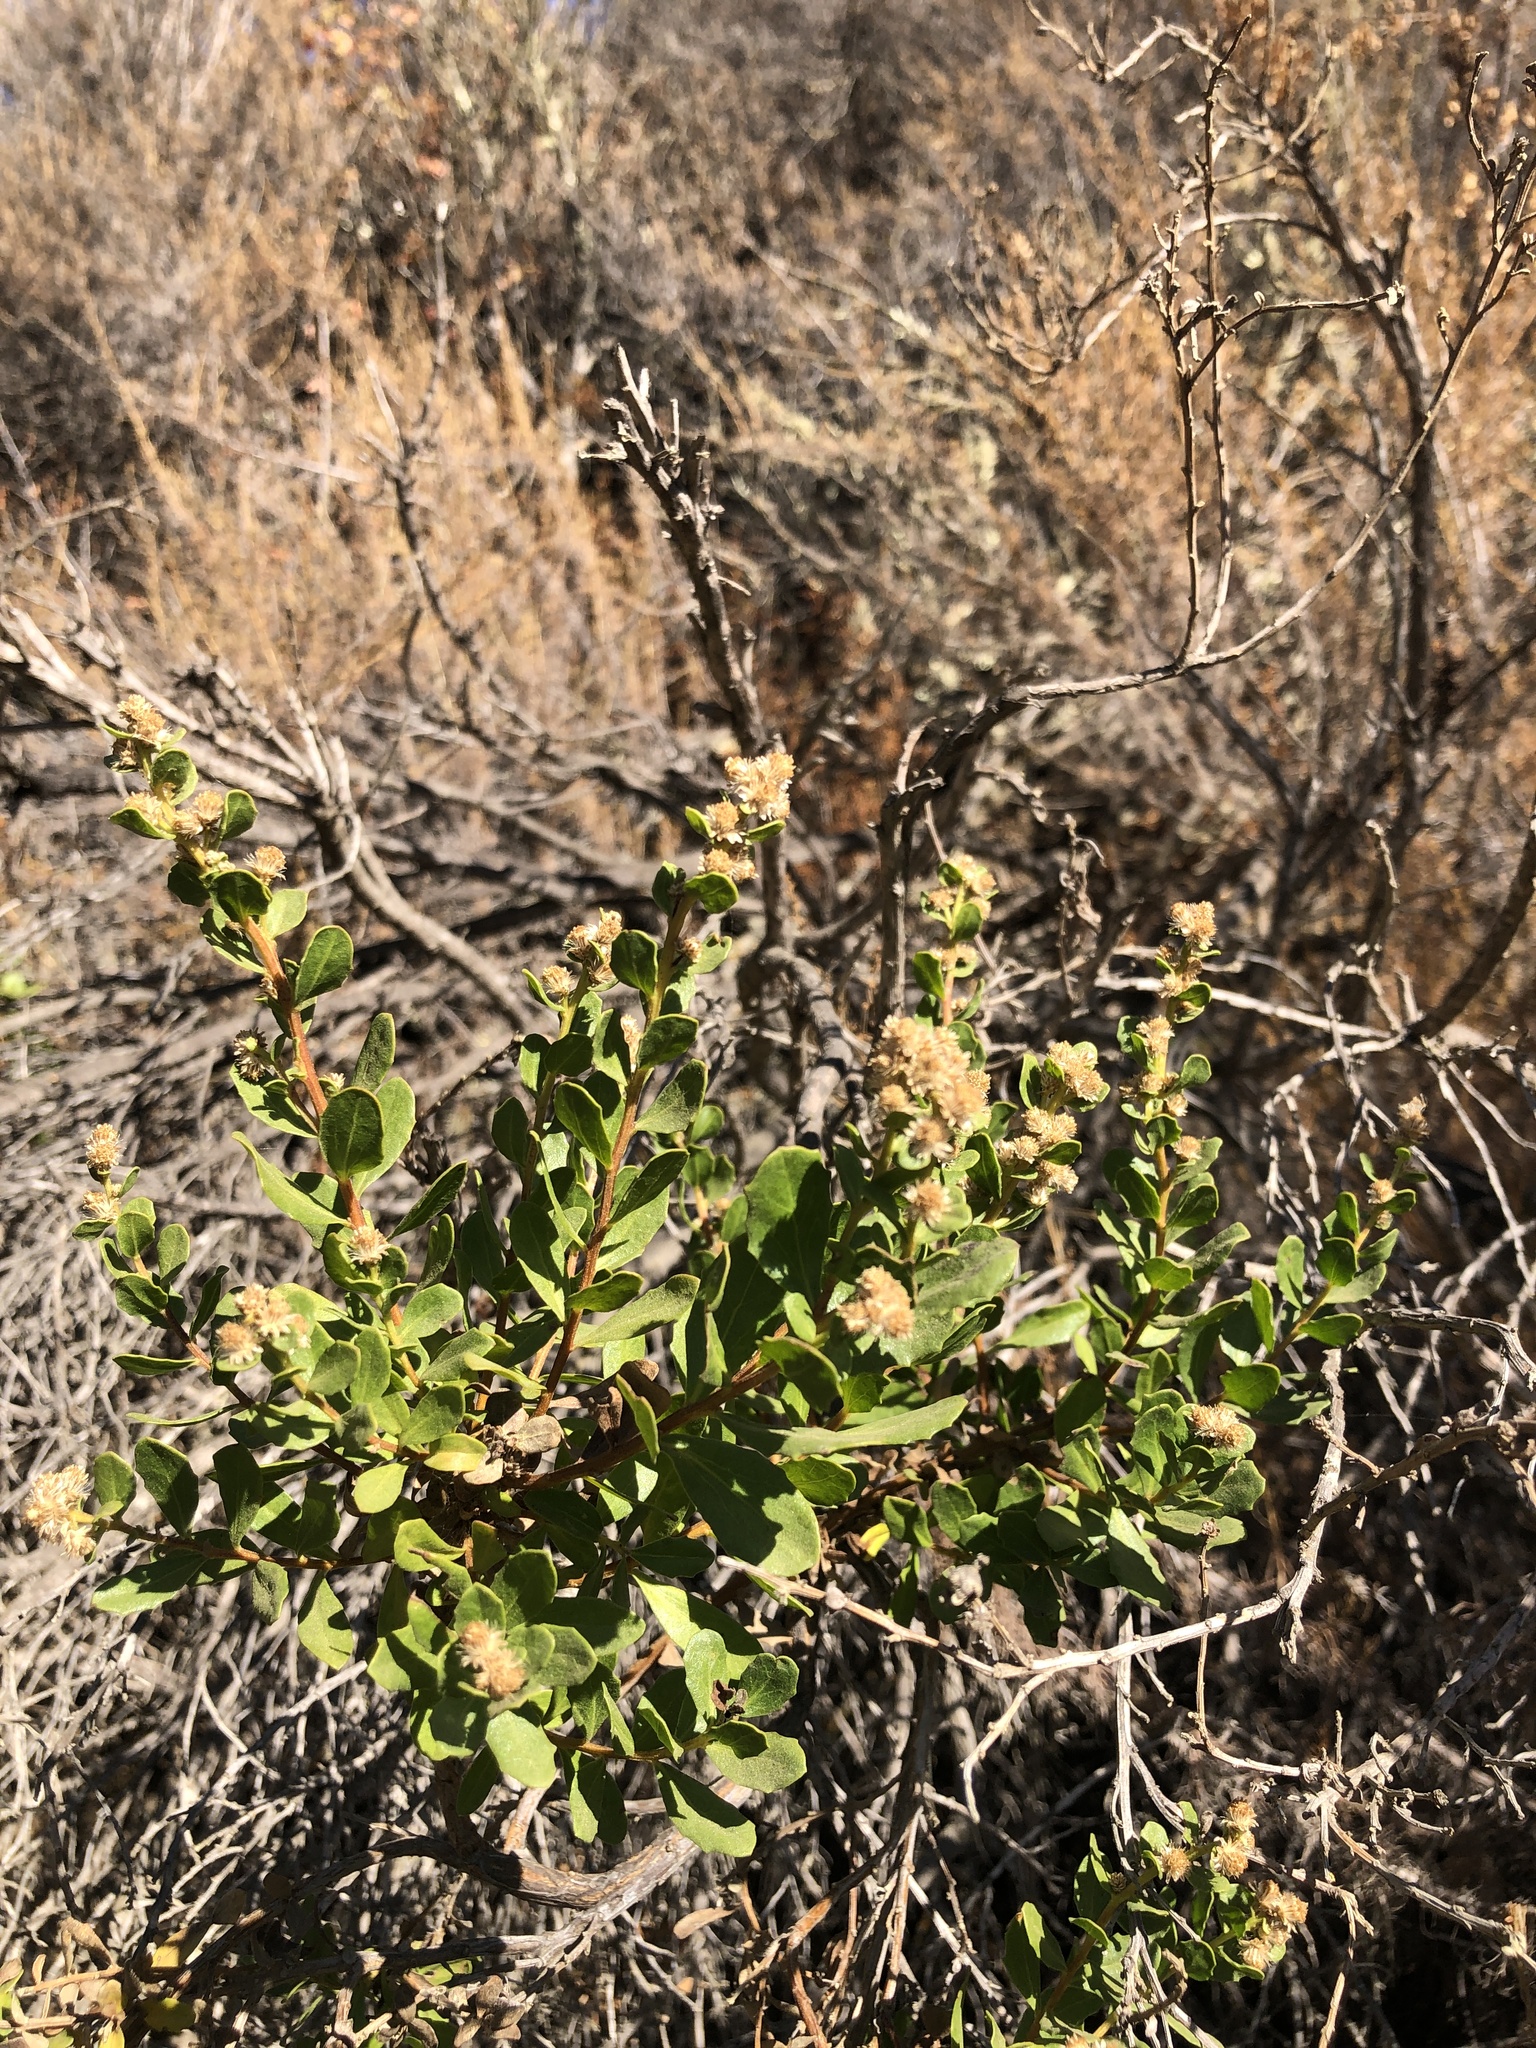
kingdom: Plantae
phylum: Tracheophyta
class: Magnoliopsida
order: Asterales
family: Asteraceae
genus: Baccharis
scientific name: Baccharis pilularis
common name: Coyotebrush
